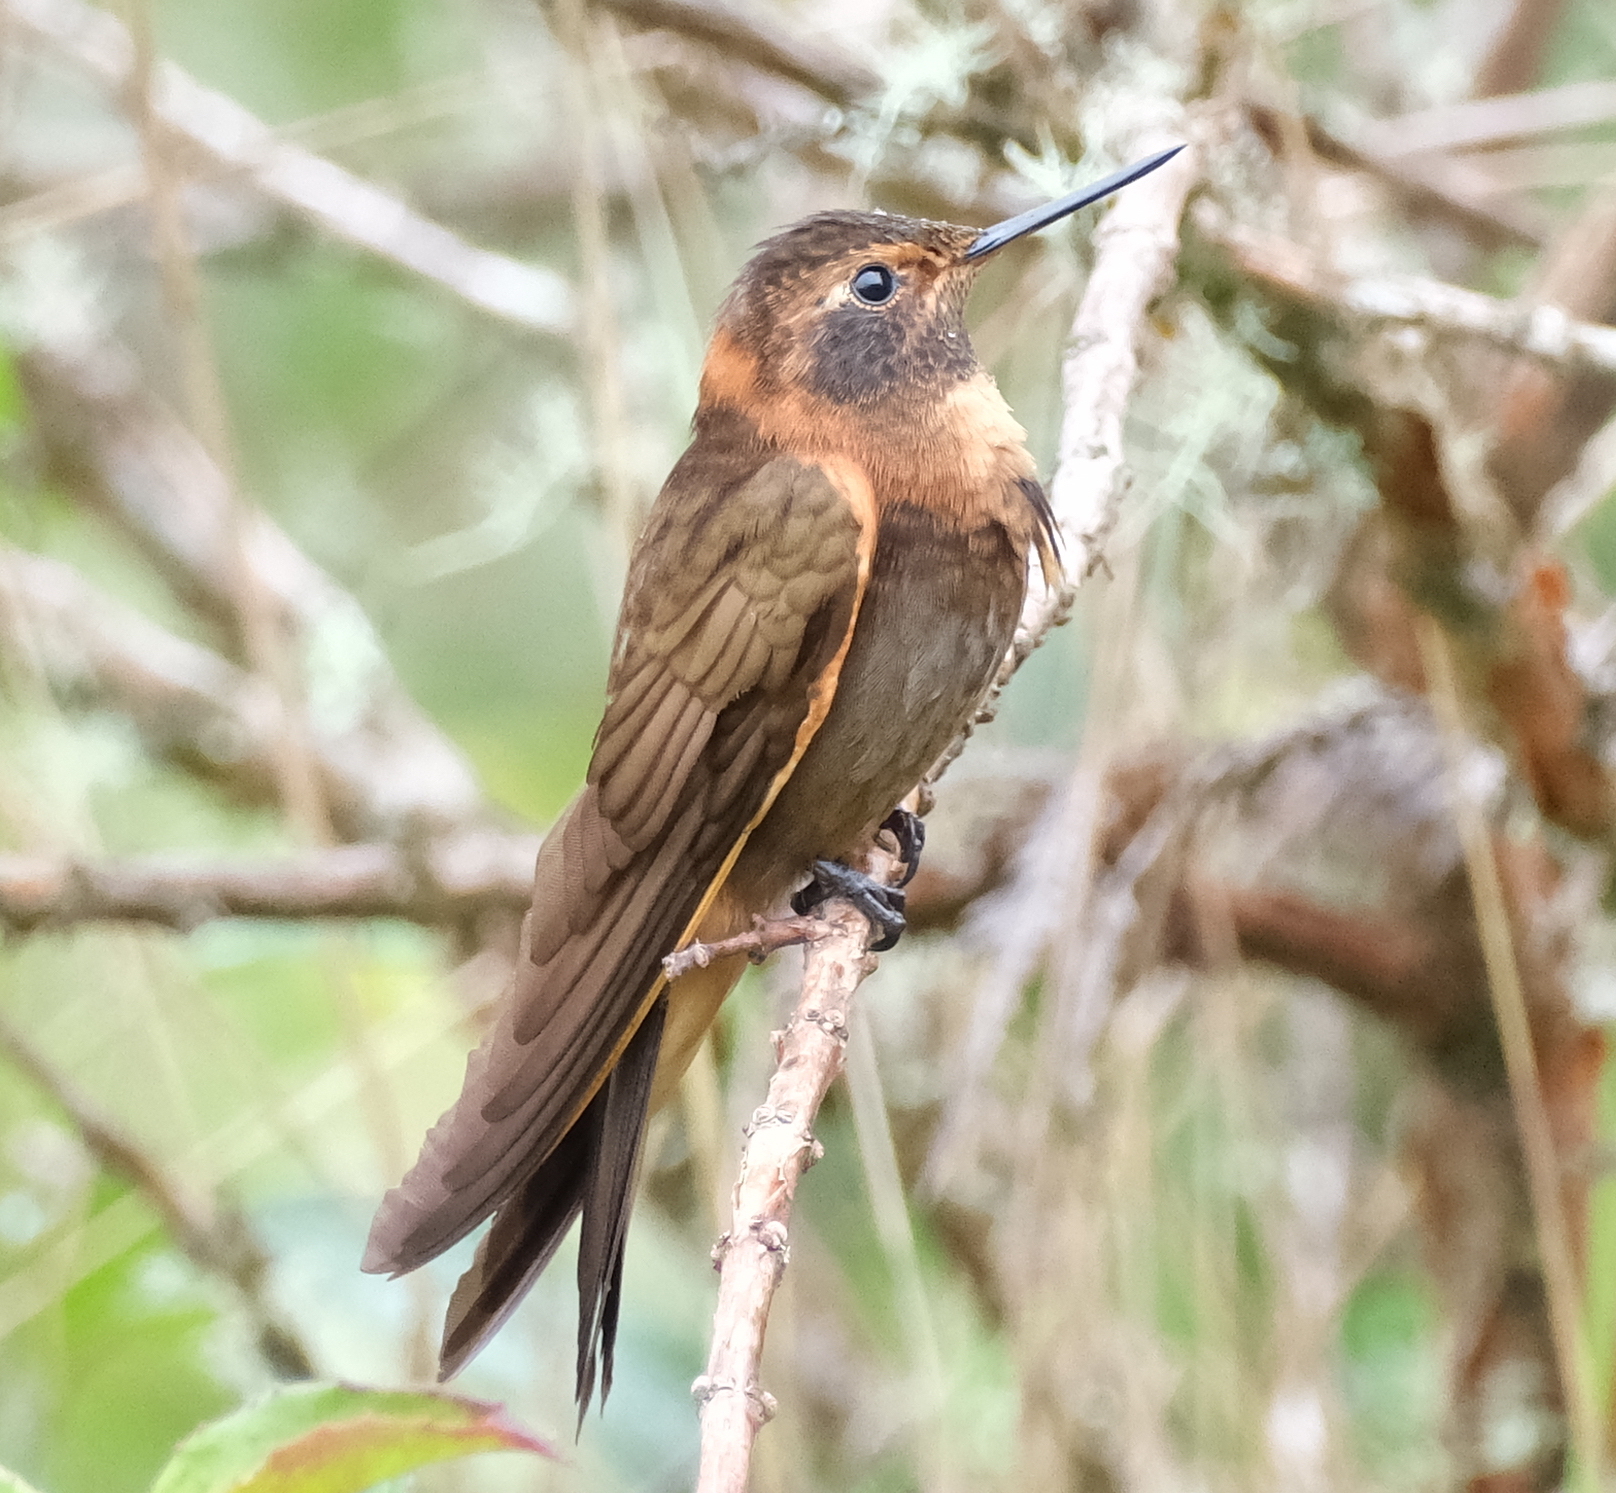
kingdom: Animalia
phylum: Chordata
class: Aves
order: Apodiformes
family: Trochilidae
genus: Aglaeactis
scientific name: Aglaeactis cupripennis
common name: Shining sunbeam
